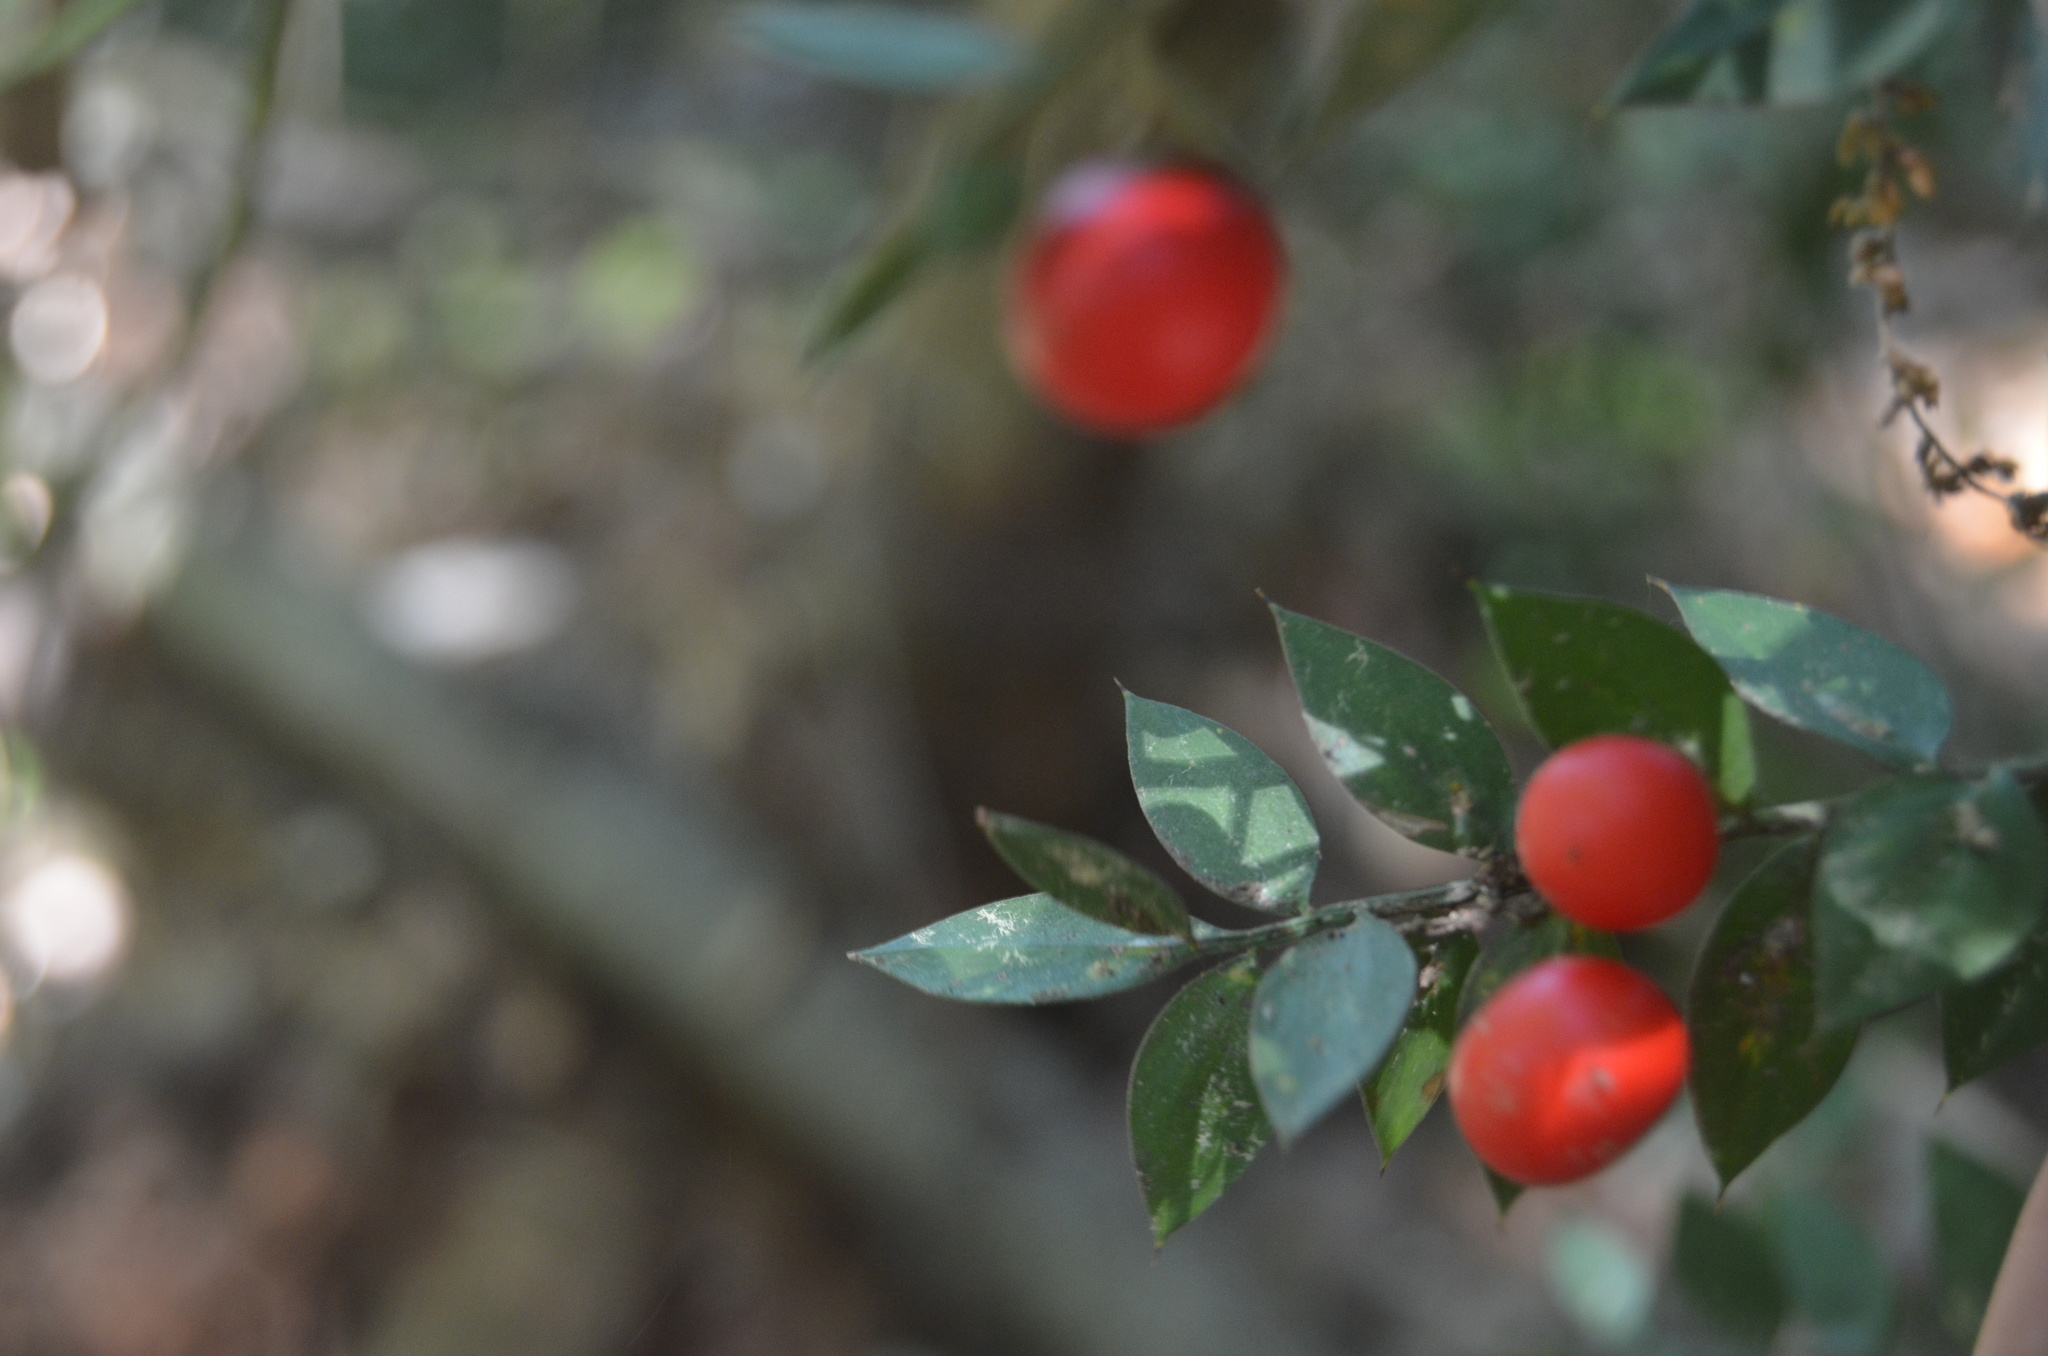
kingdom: Plantae
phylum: Tracheophyta
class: Liliopsida
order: Asparagales
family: Asparagaceae
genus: Ruscus
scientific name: Ruscus aculeatus
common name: Butcher's-broom
